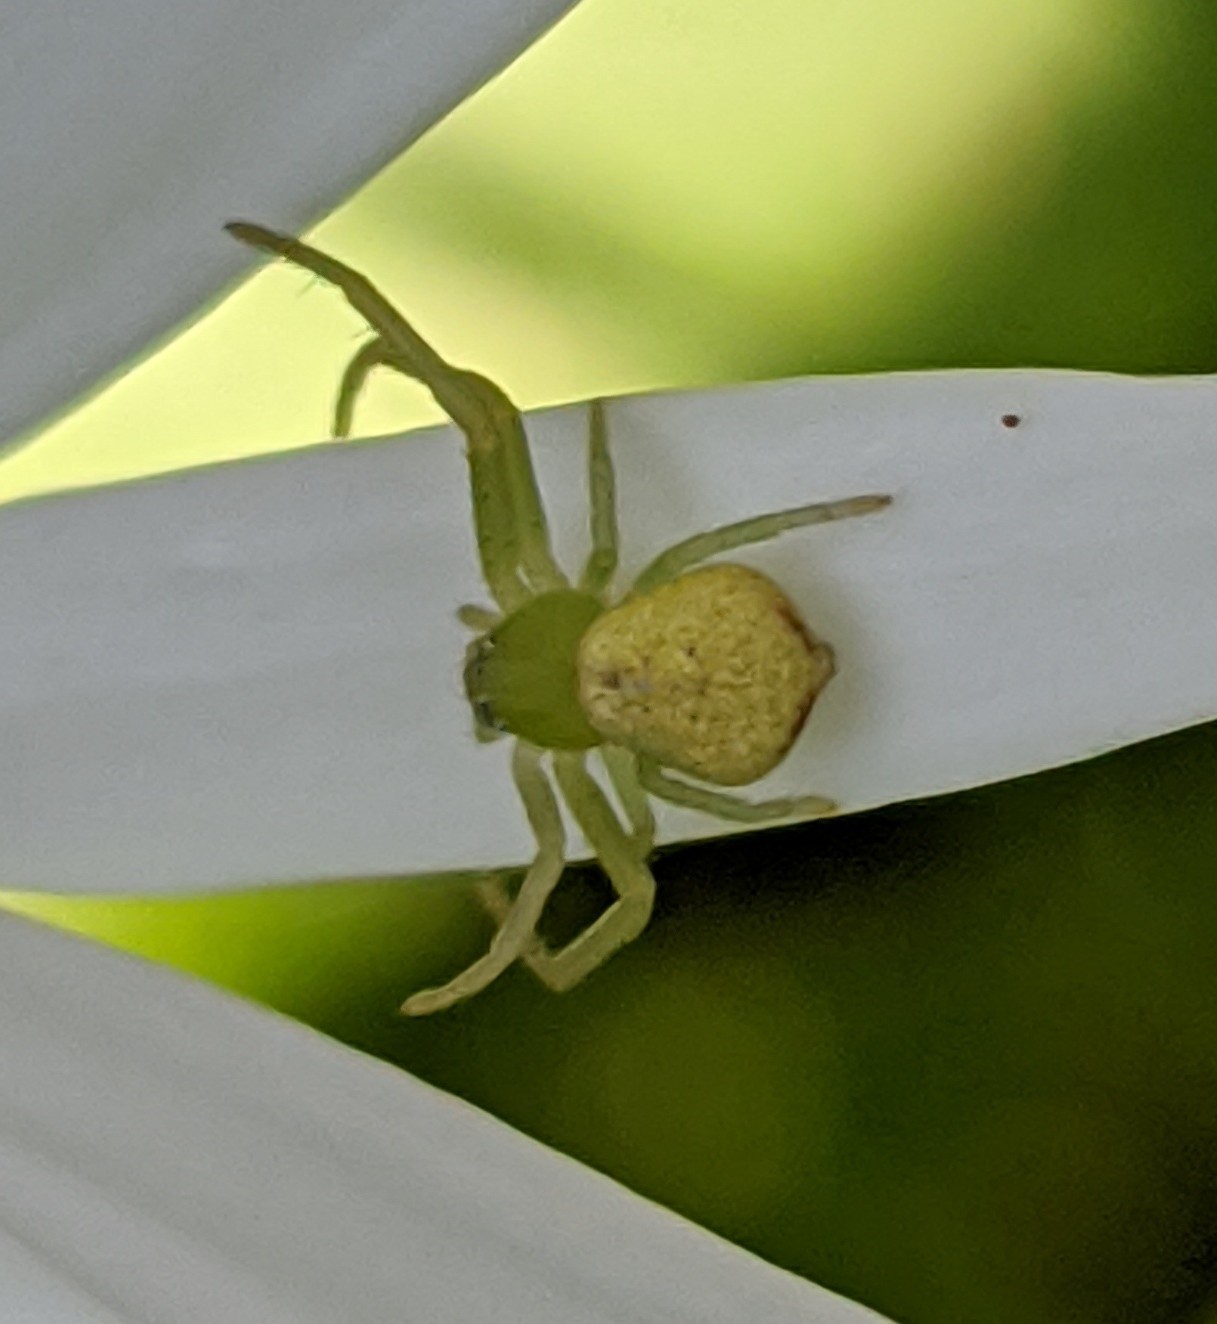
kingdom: Animalia
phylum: Arthropoda
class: Arachnida
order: Araneae
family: Thomisidae
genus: Ebrechtella
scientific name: Ebrechtella tricuspidata
